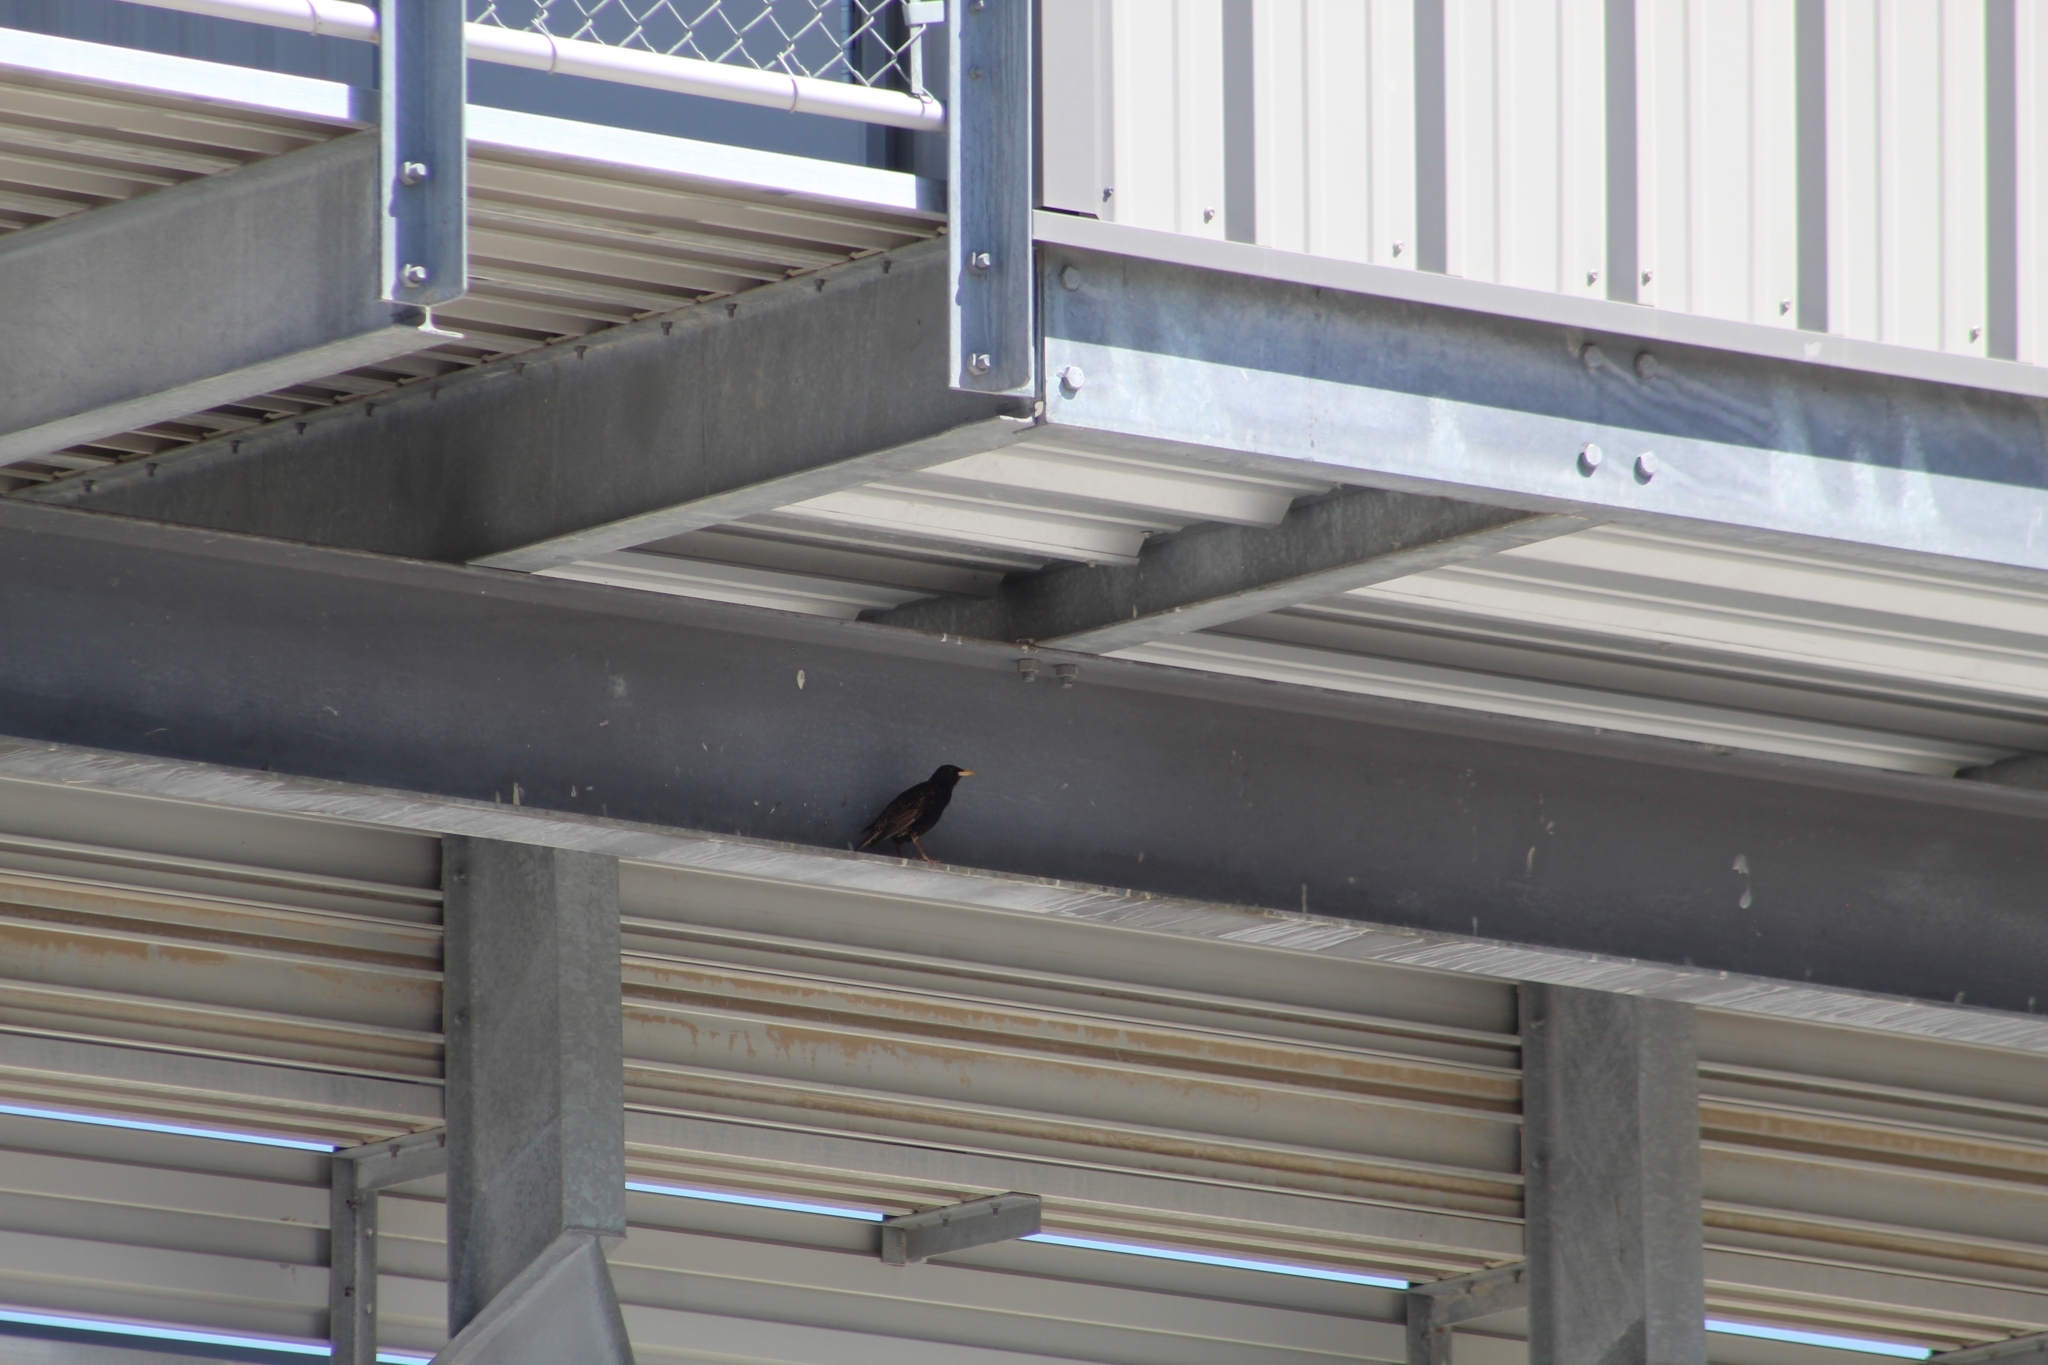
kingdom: Animalia
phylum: Chordata
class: Aves
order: Passeriformes
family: Sturnidae
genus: Sturnus
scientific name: Sturnus vulgaris
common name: Common starling
